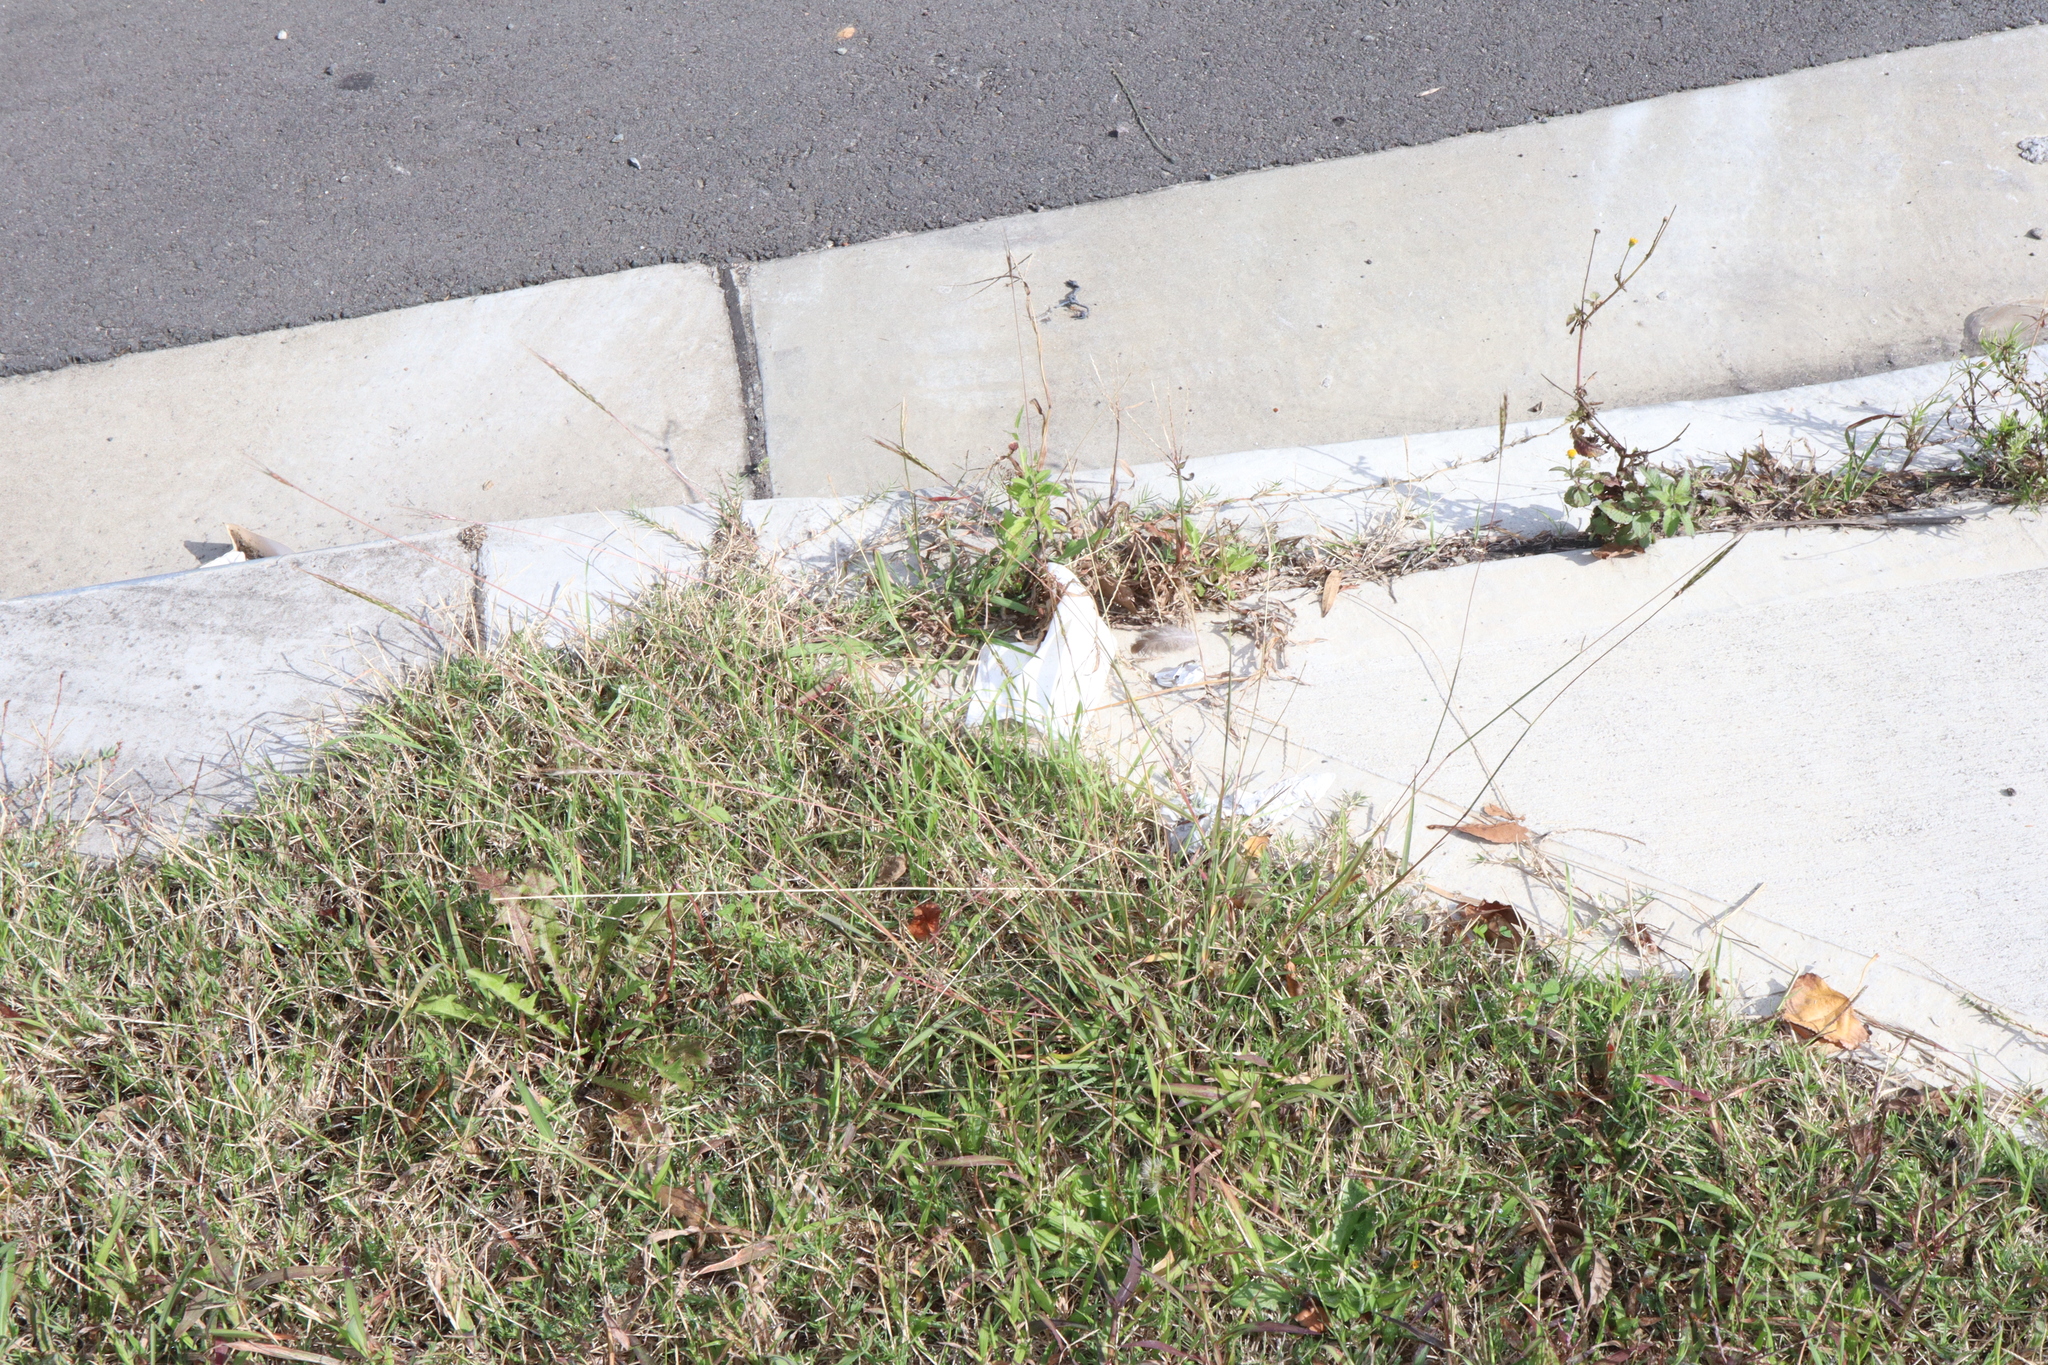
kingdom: Plantae
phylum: Tracheophyta
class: Liliopsida
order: Poales
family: Poaceae
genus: Bothriochloa
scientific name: Bothriochloa macra
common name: Pitted beard grass
